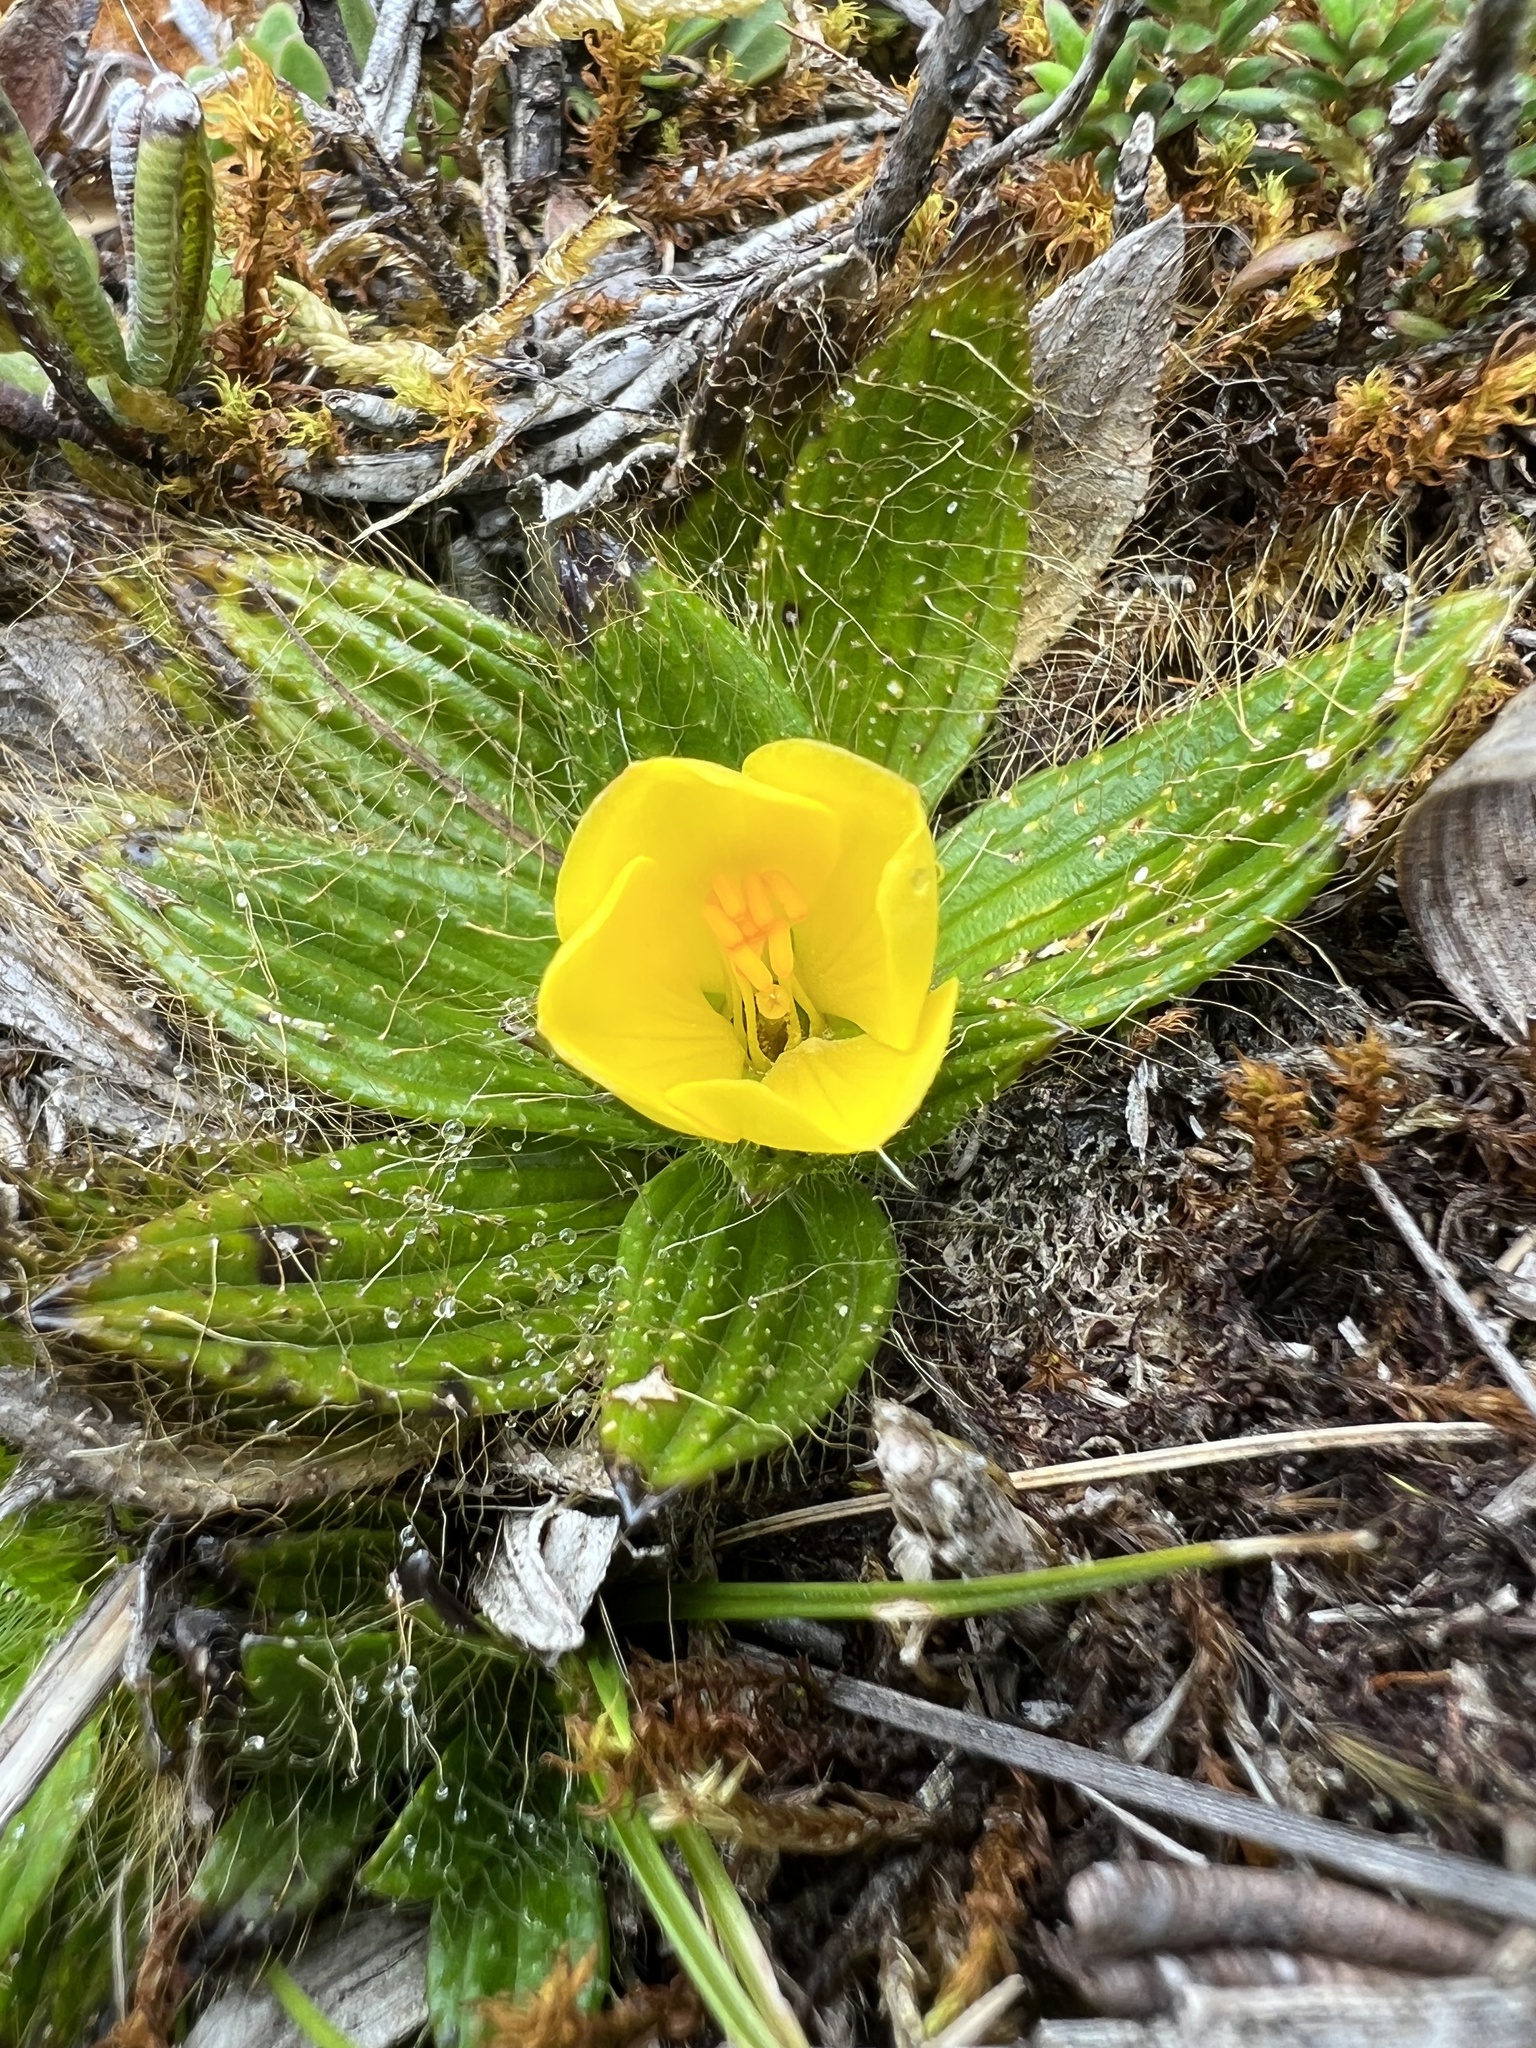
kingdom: Plantae
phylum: Tracheophyta
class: Magnoliopsida
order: Myrtales
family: Melastomataceae
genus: Castratella
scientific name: Castratella piloselloides
